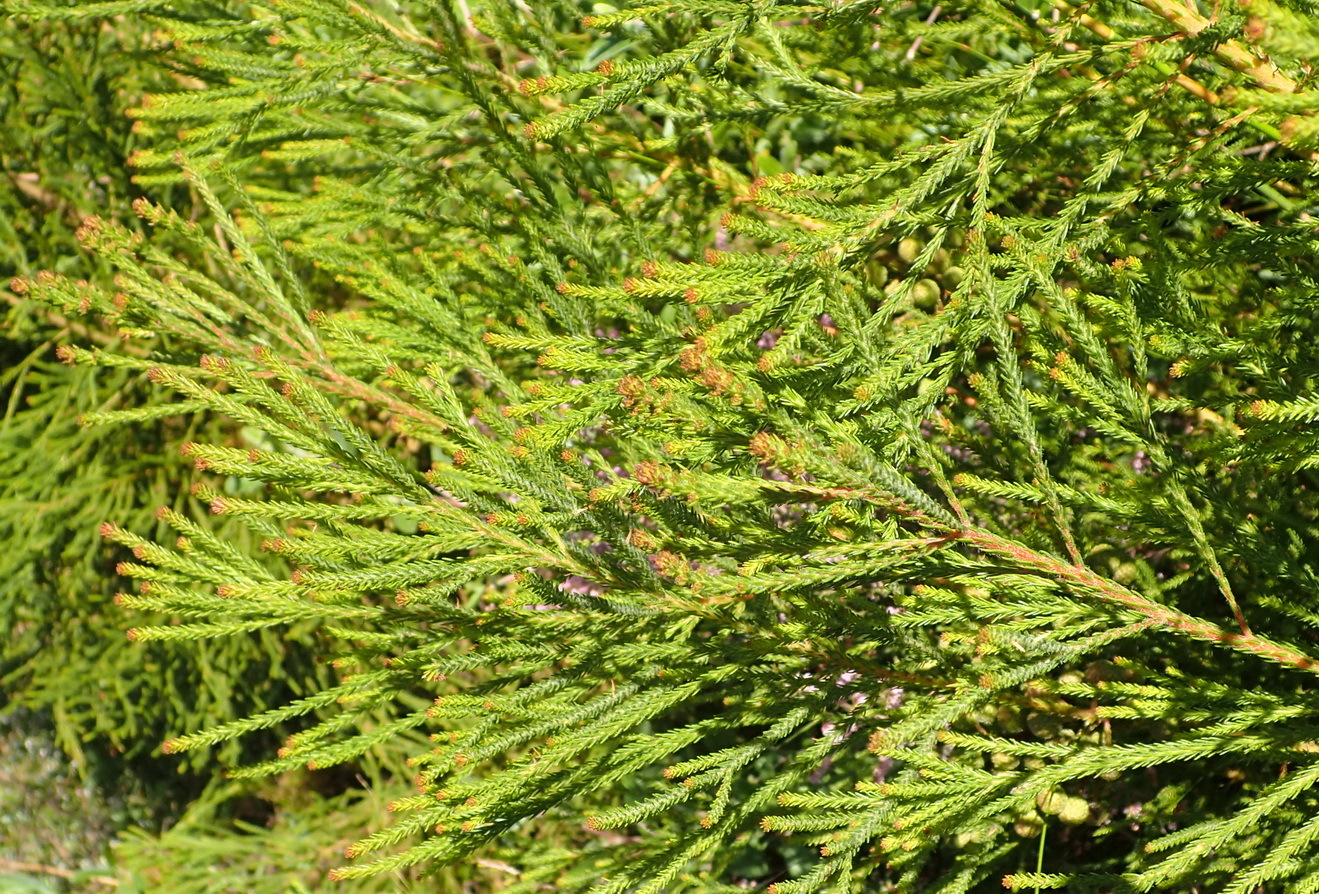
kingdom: Plantae
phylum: Tracheophyta
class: Magnoliopsida
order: Bruniales
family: Bruniaceae
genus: Berzelia
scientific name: Berzelia intermedia
